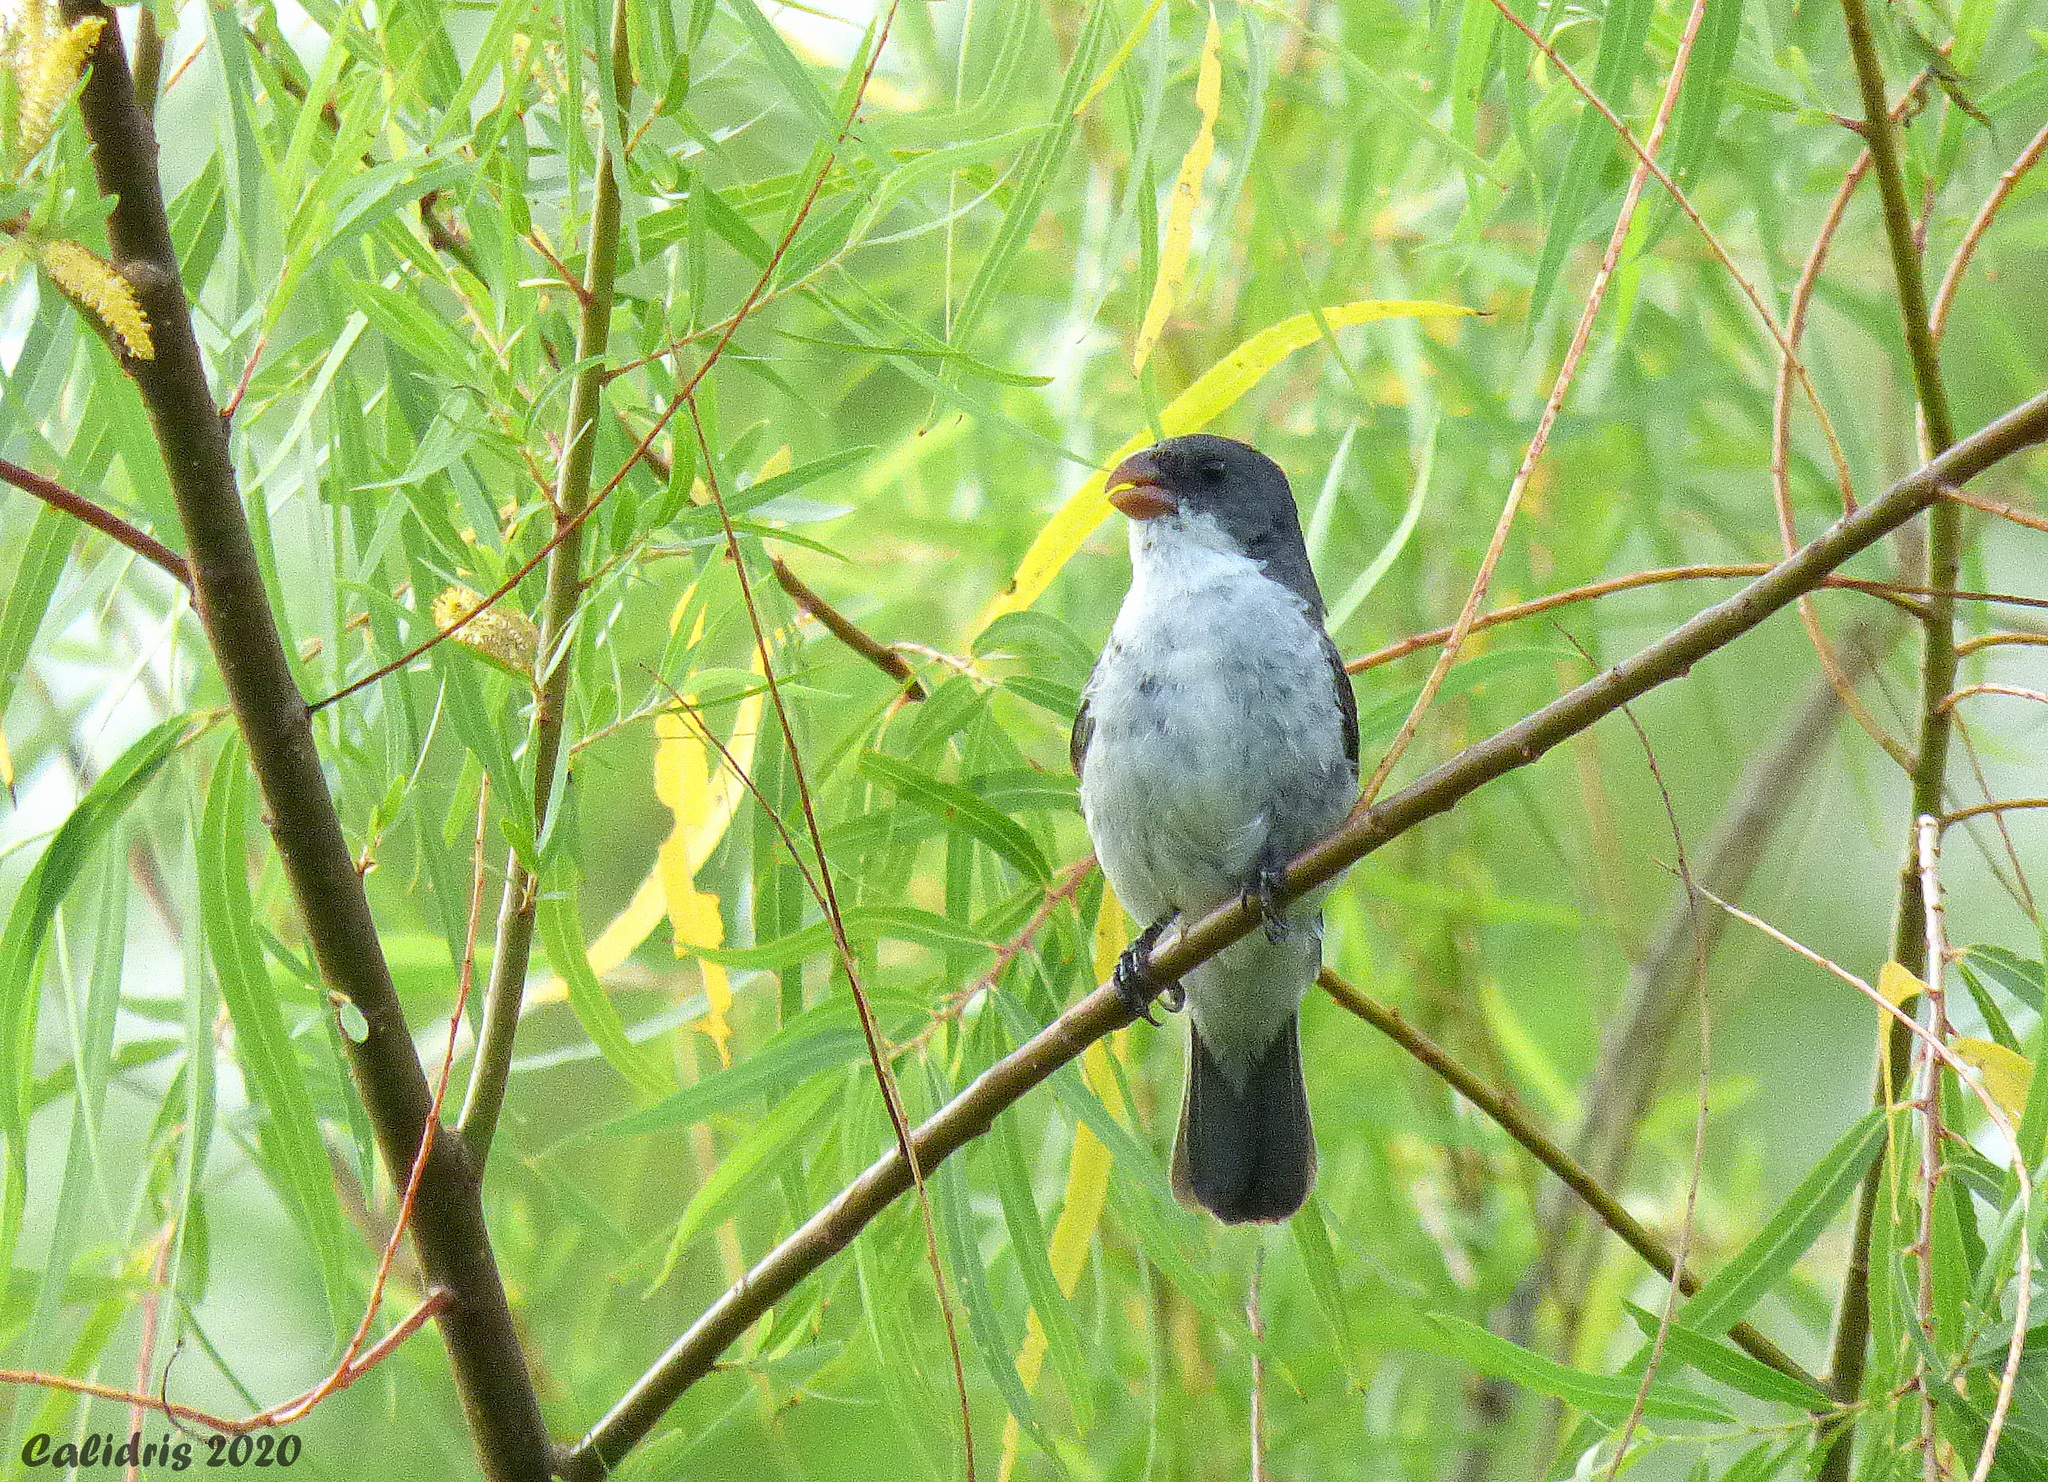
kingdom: Animalia
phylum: Chordata
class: Aves
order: Passeriformes
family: Thraupidae
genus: Sporophila
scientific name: Sporophila leucoptera
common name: White-bellied seedeater
